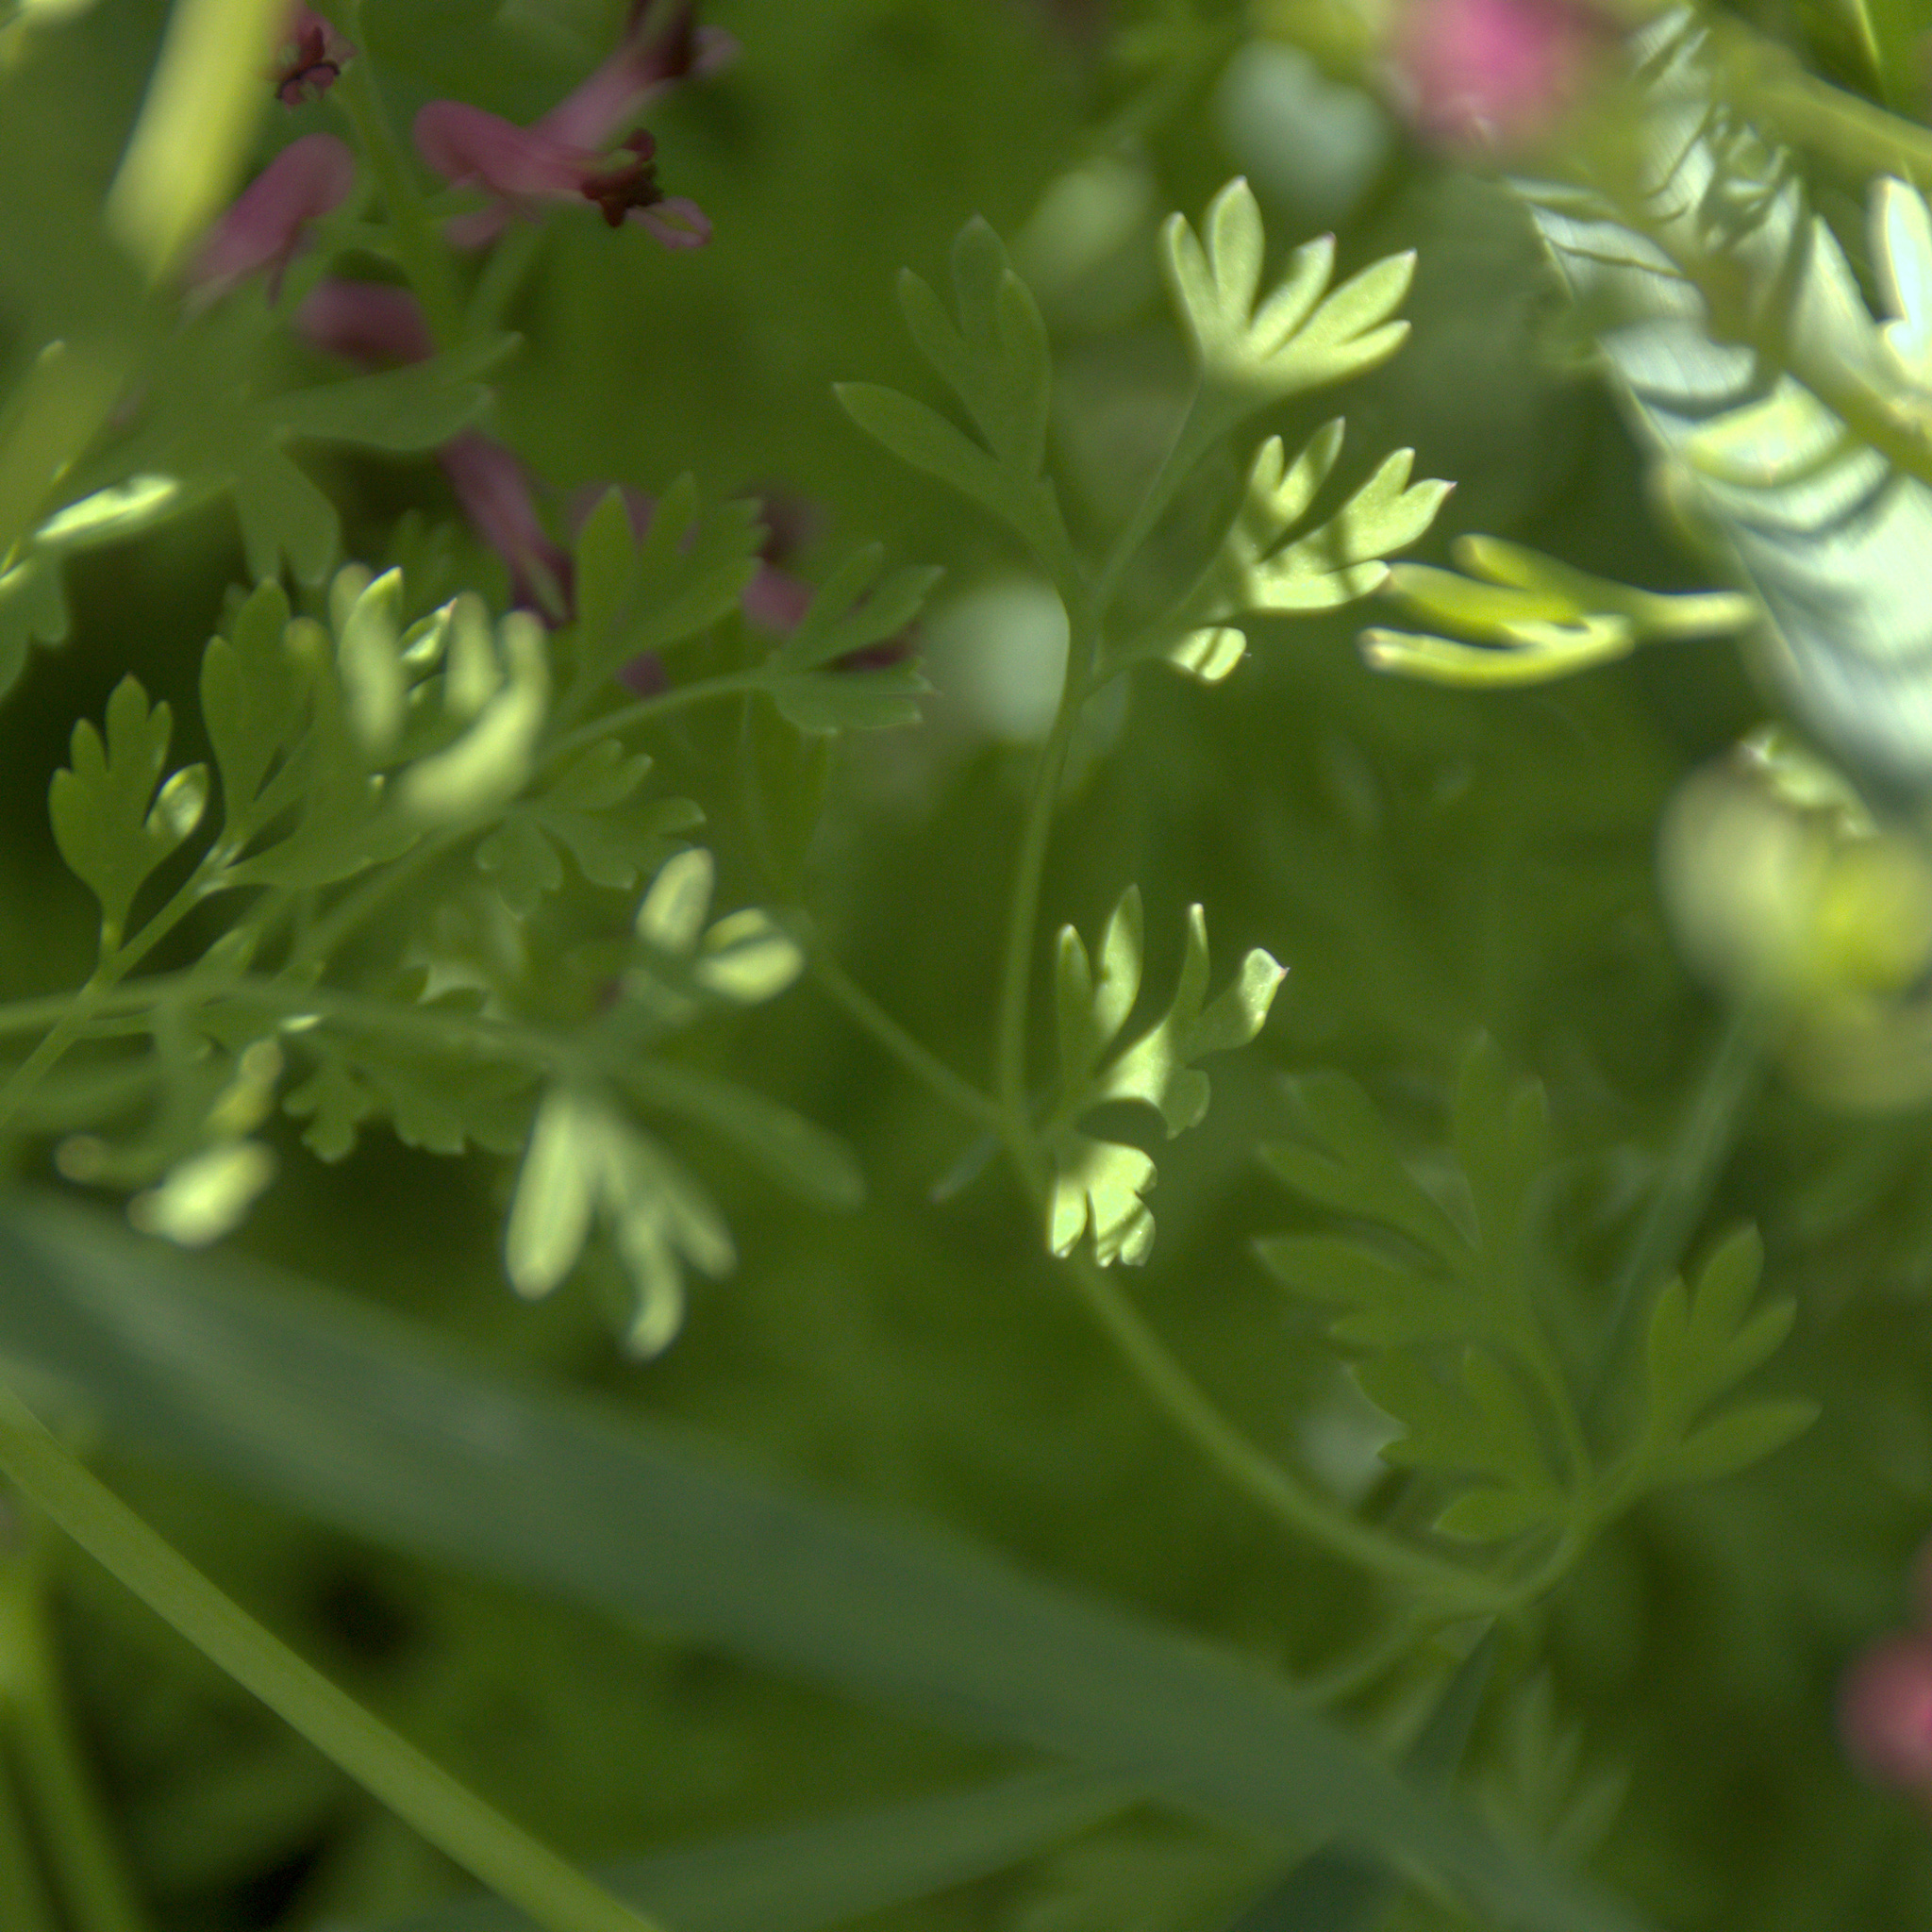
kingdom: Plantae
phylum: Tracheophyta
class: Magnoliopsida
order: Ranunculales
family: Papaveraceae
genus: Fumaria
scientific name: Fumaria officinalis
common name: Common fumitory
